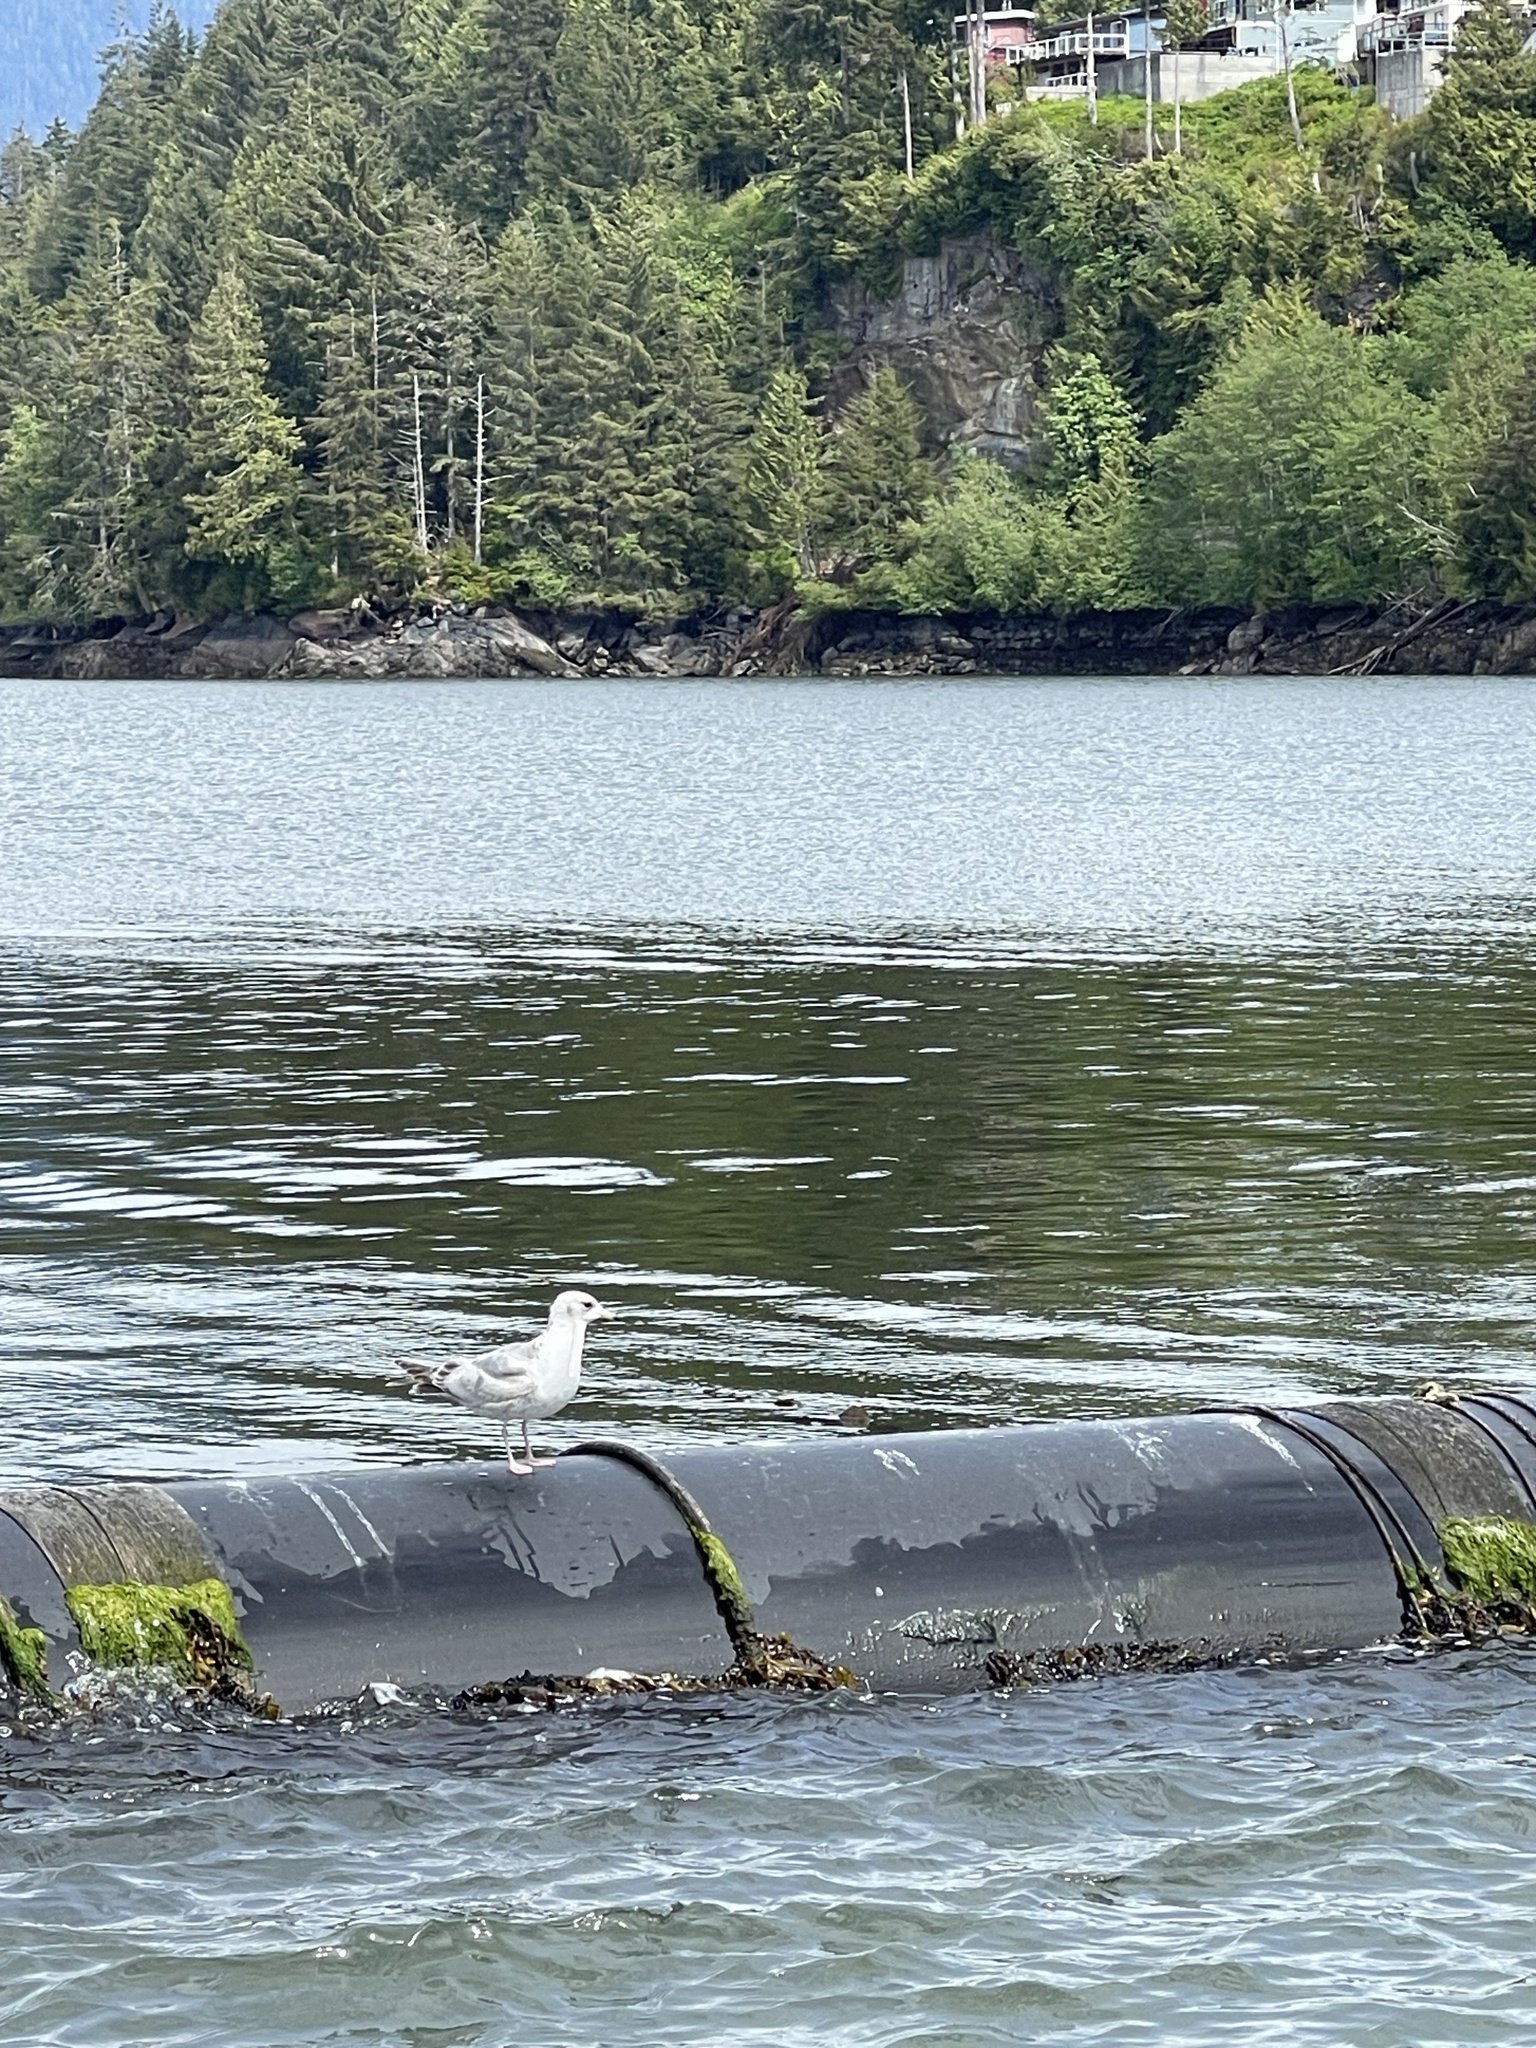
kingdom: Animalia
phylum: Chordata
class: Aves
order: Charadriiformes
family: Laridae
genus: Larus
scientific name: Larus delawarensis
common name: Ring-billed gull
